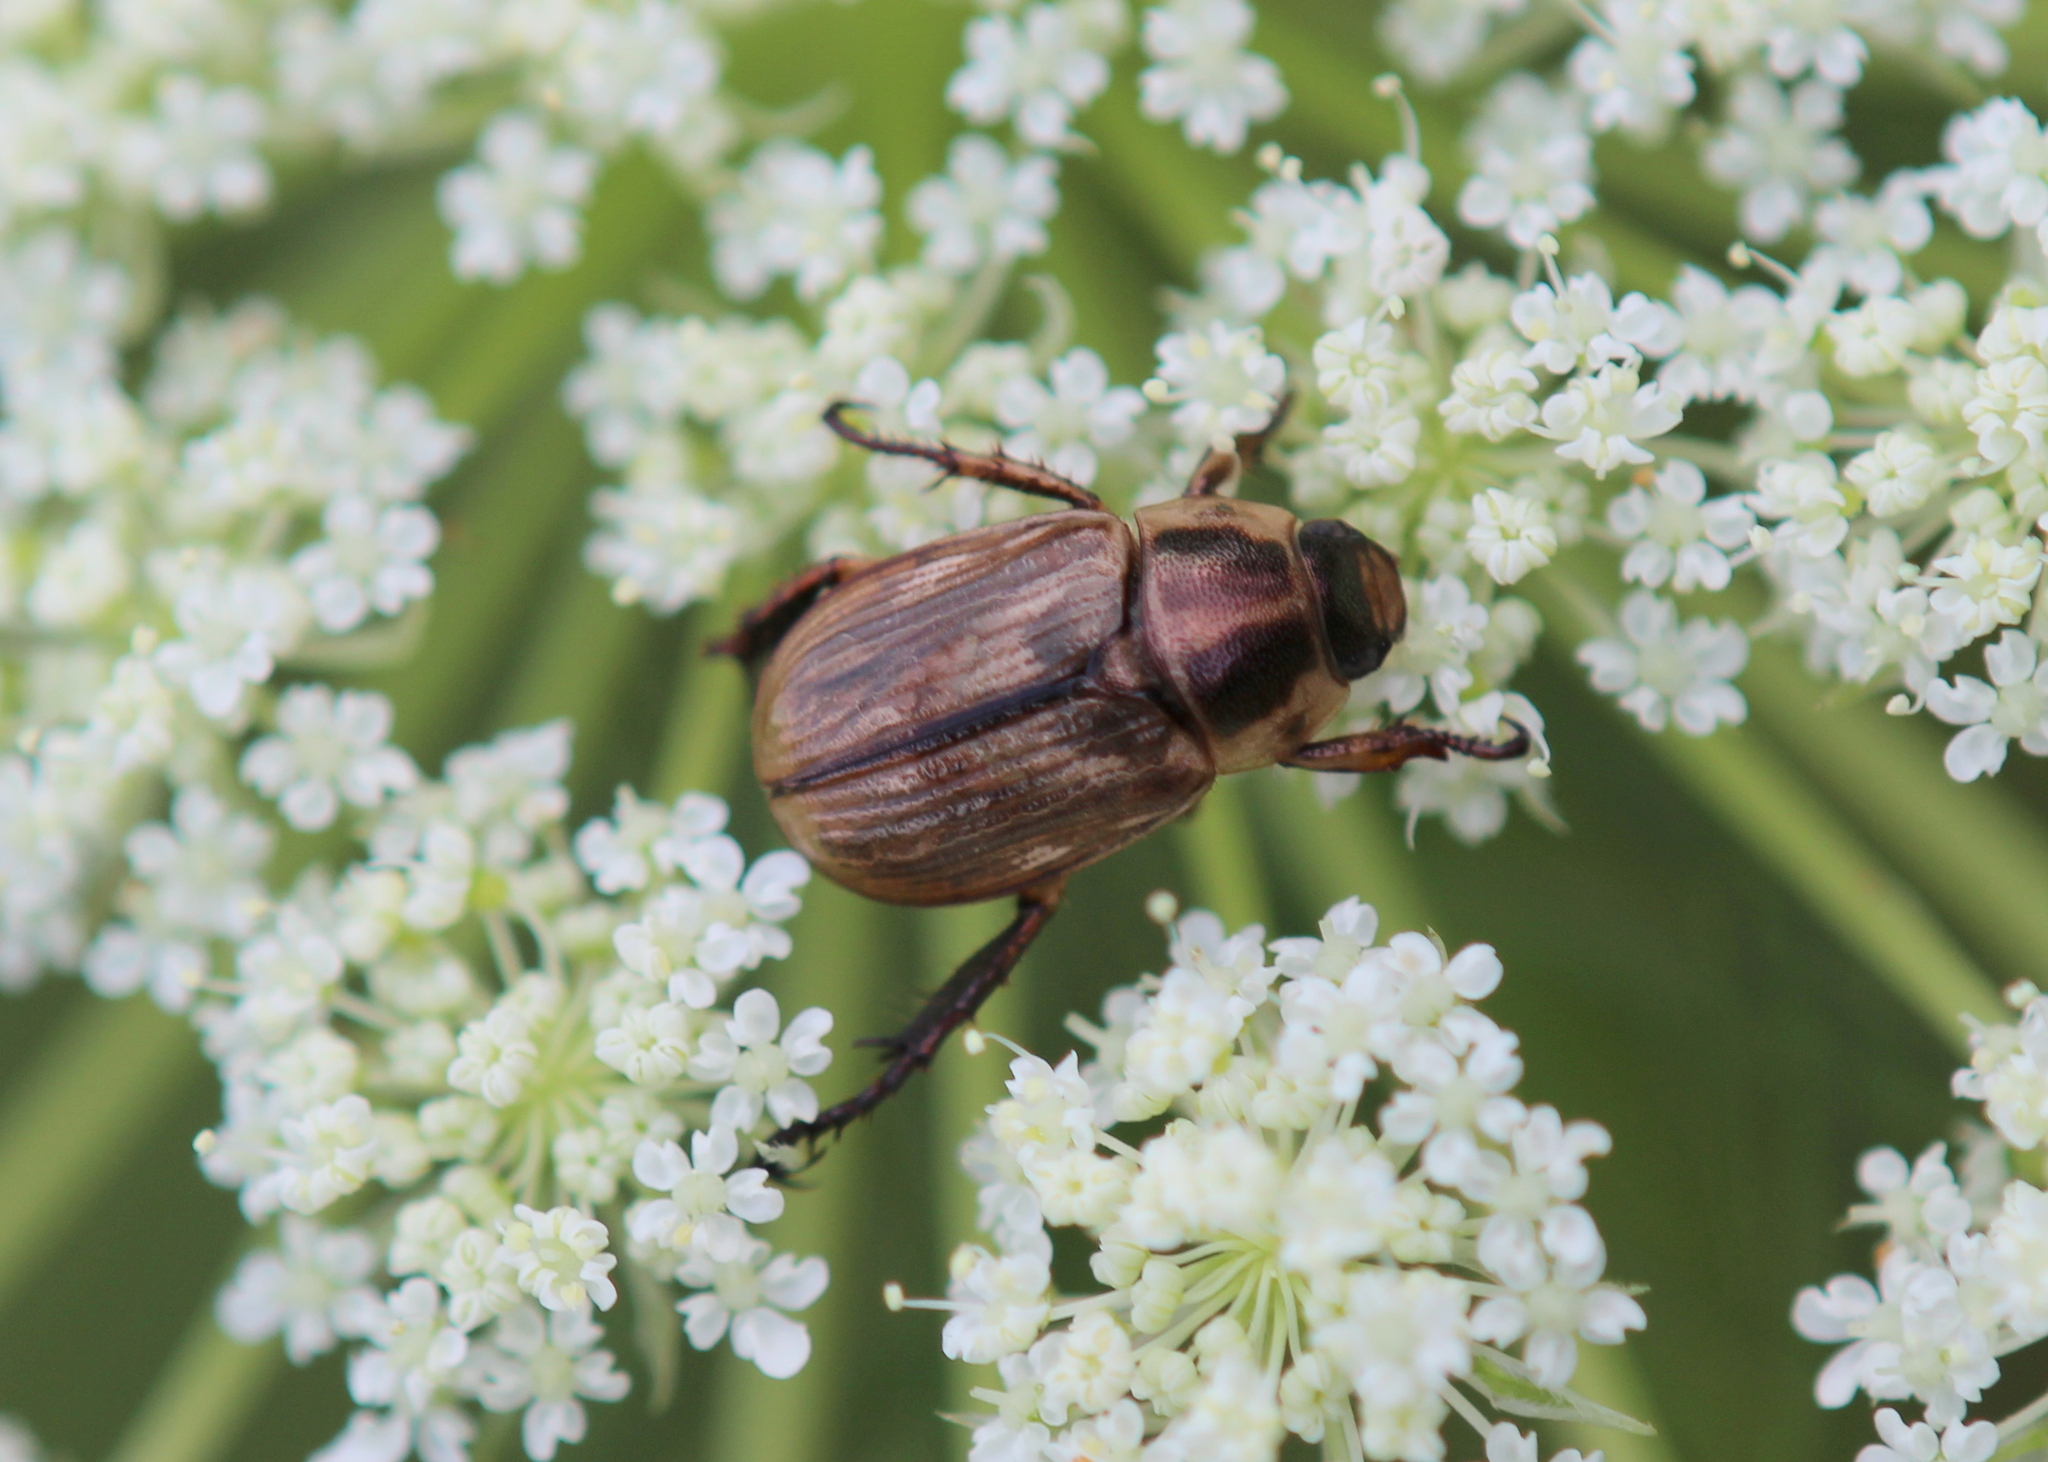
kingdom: Animalia
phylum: Arthropoda
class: Insecta
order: Coleoptera
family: Scarabaeidae
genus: Exomala
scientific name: Exomala orientalis
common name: Oriental beetle
